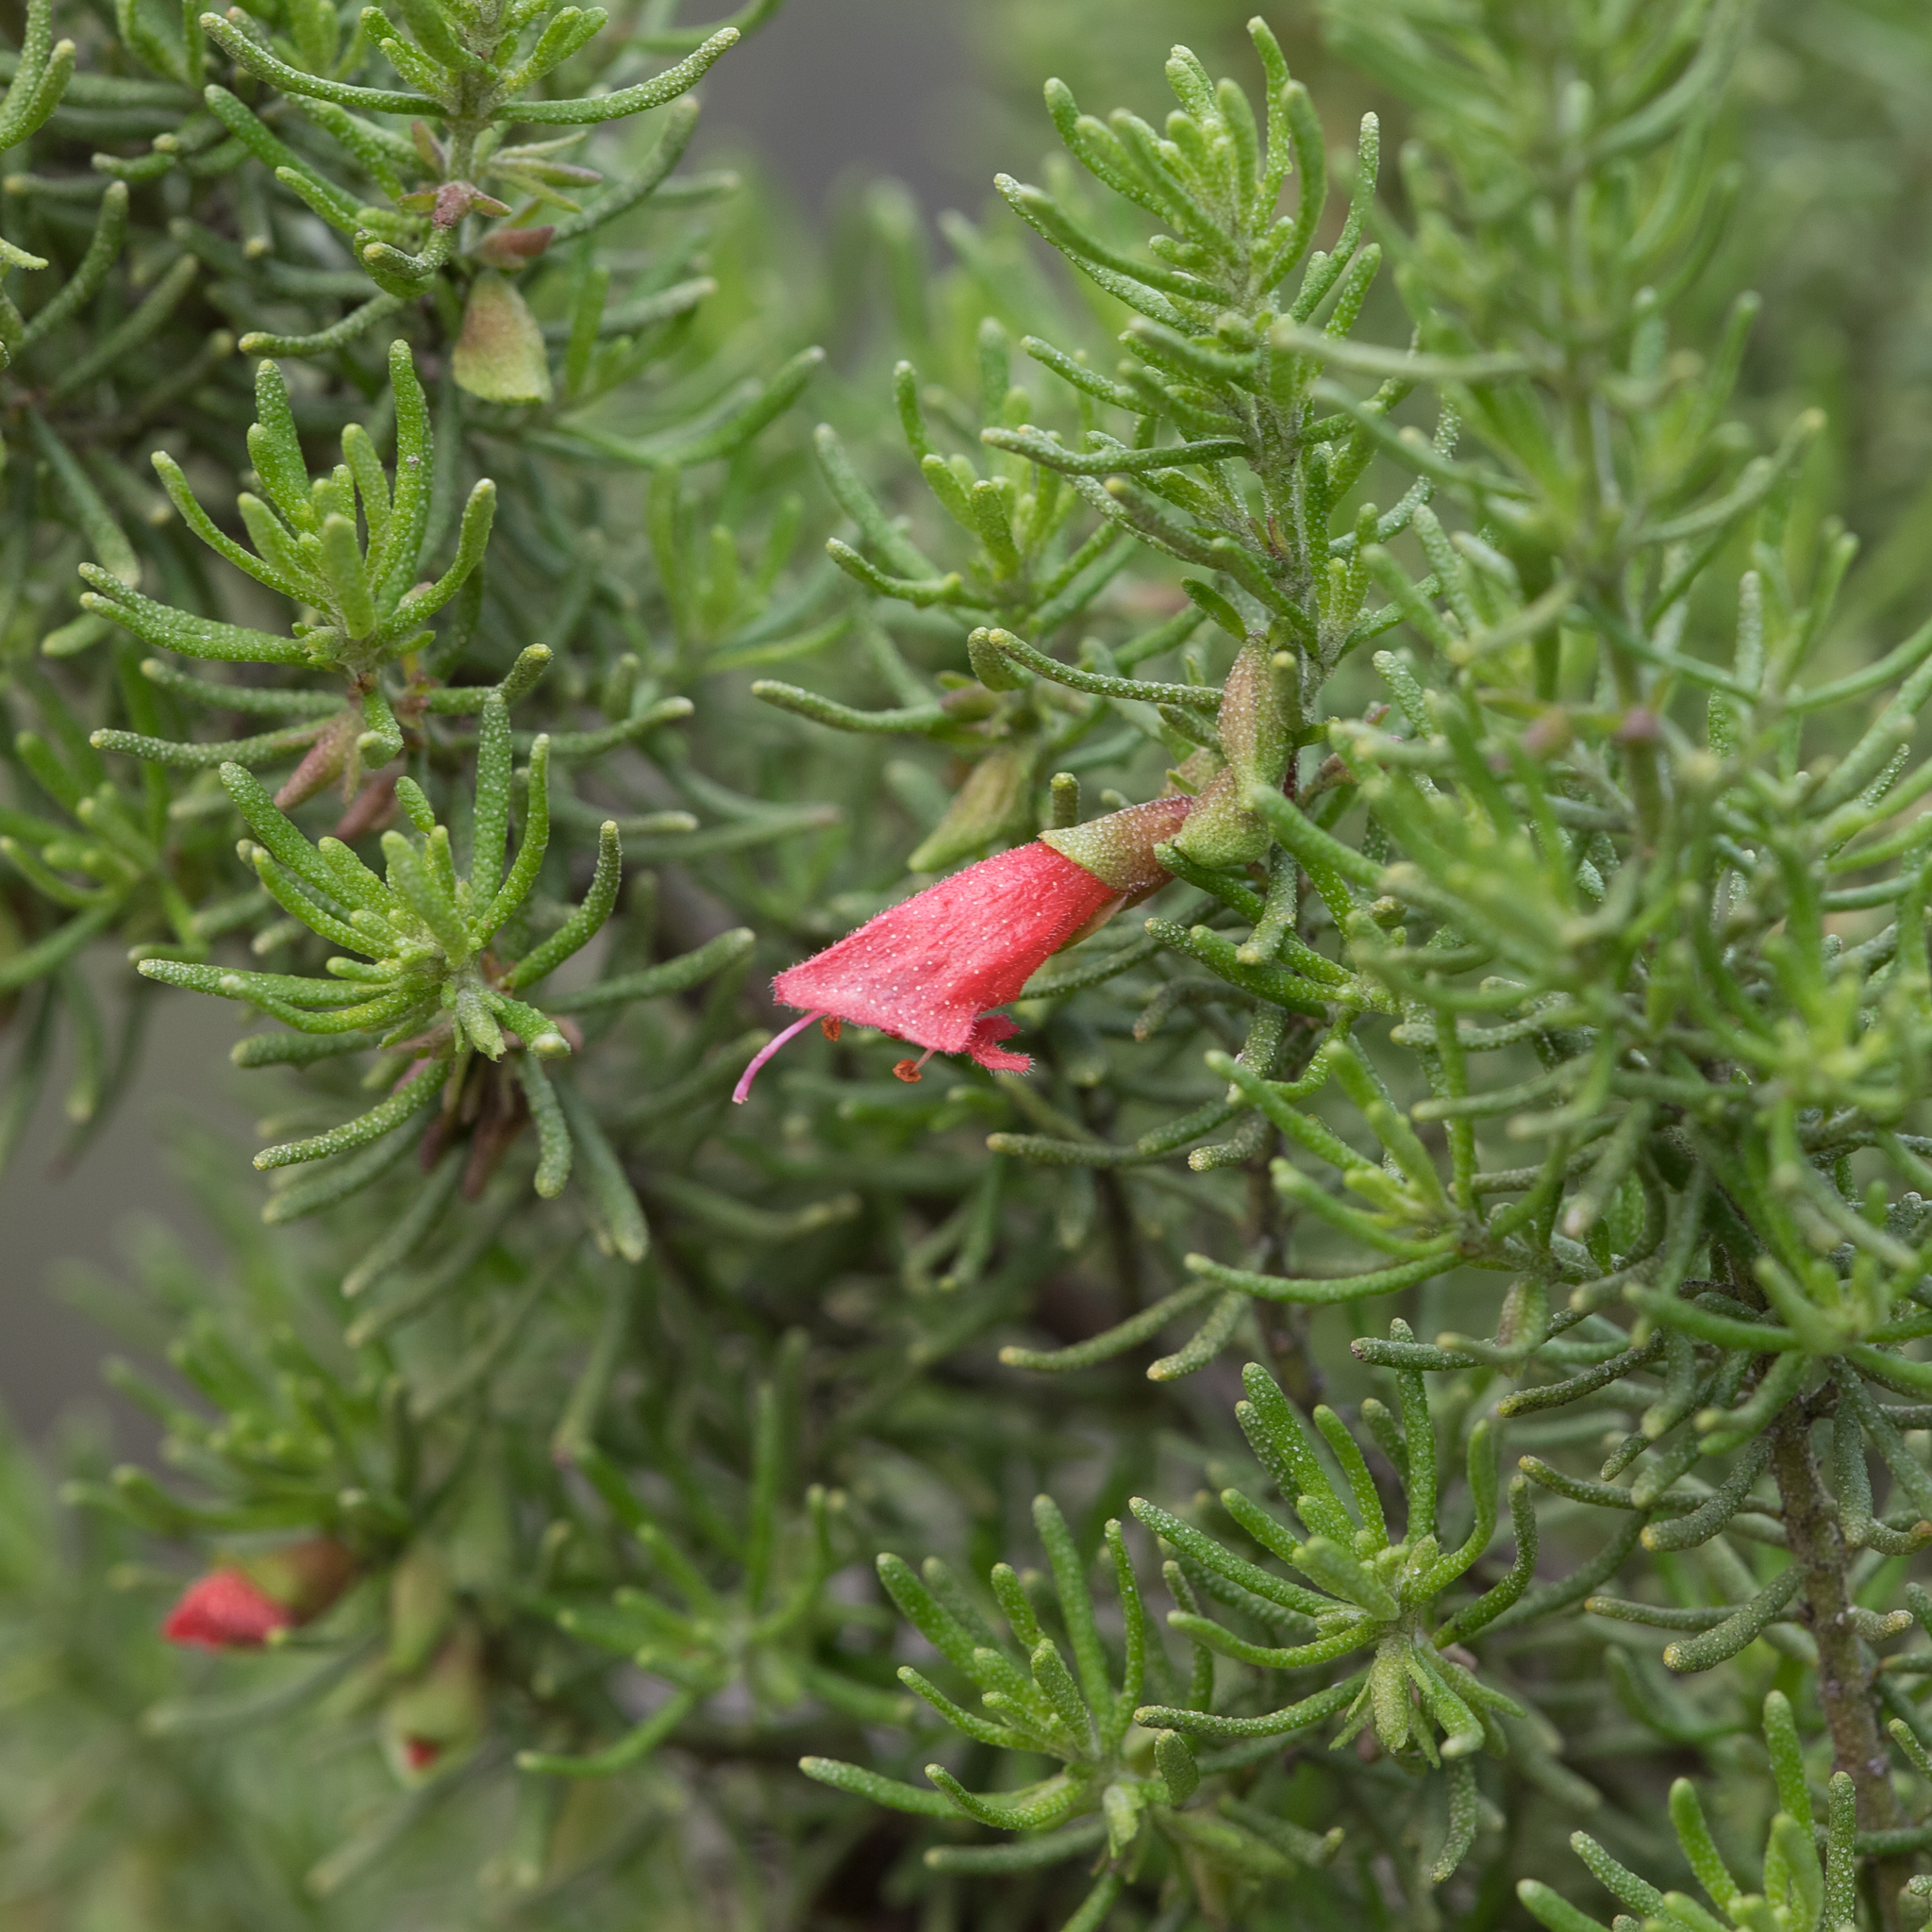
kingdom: Plantae
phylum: Tracheophyta
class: Magnoliopsida
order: Lamiales
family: Lamiaceae
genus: Prostanthera
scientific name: Prostanthera aspalathoides
